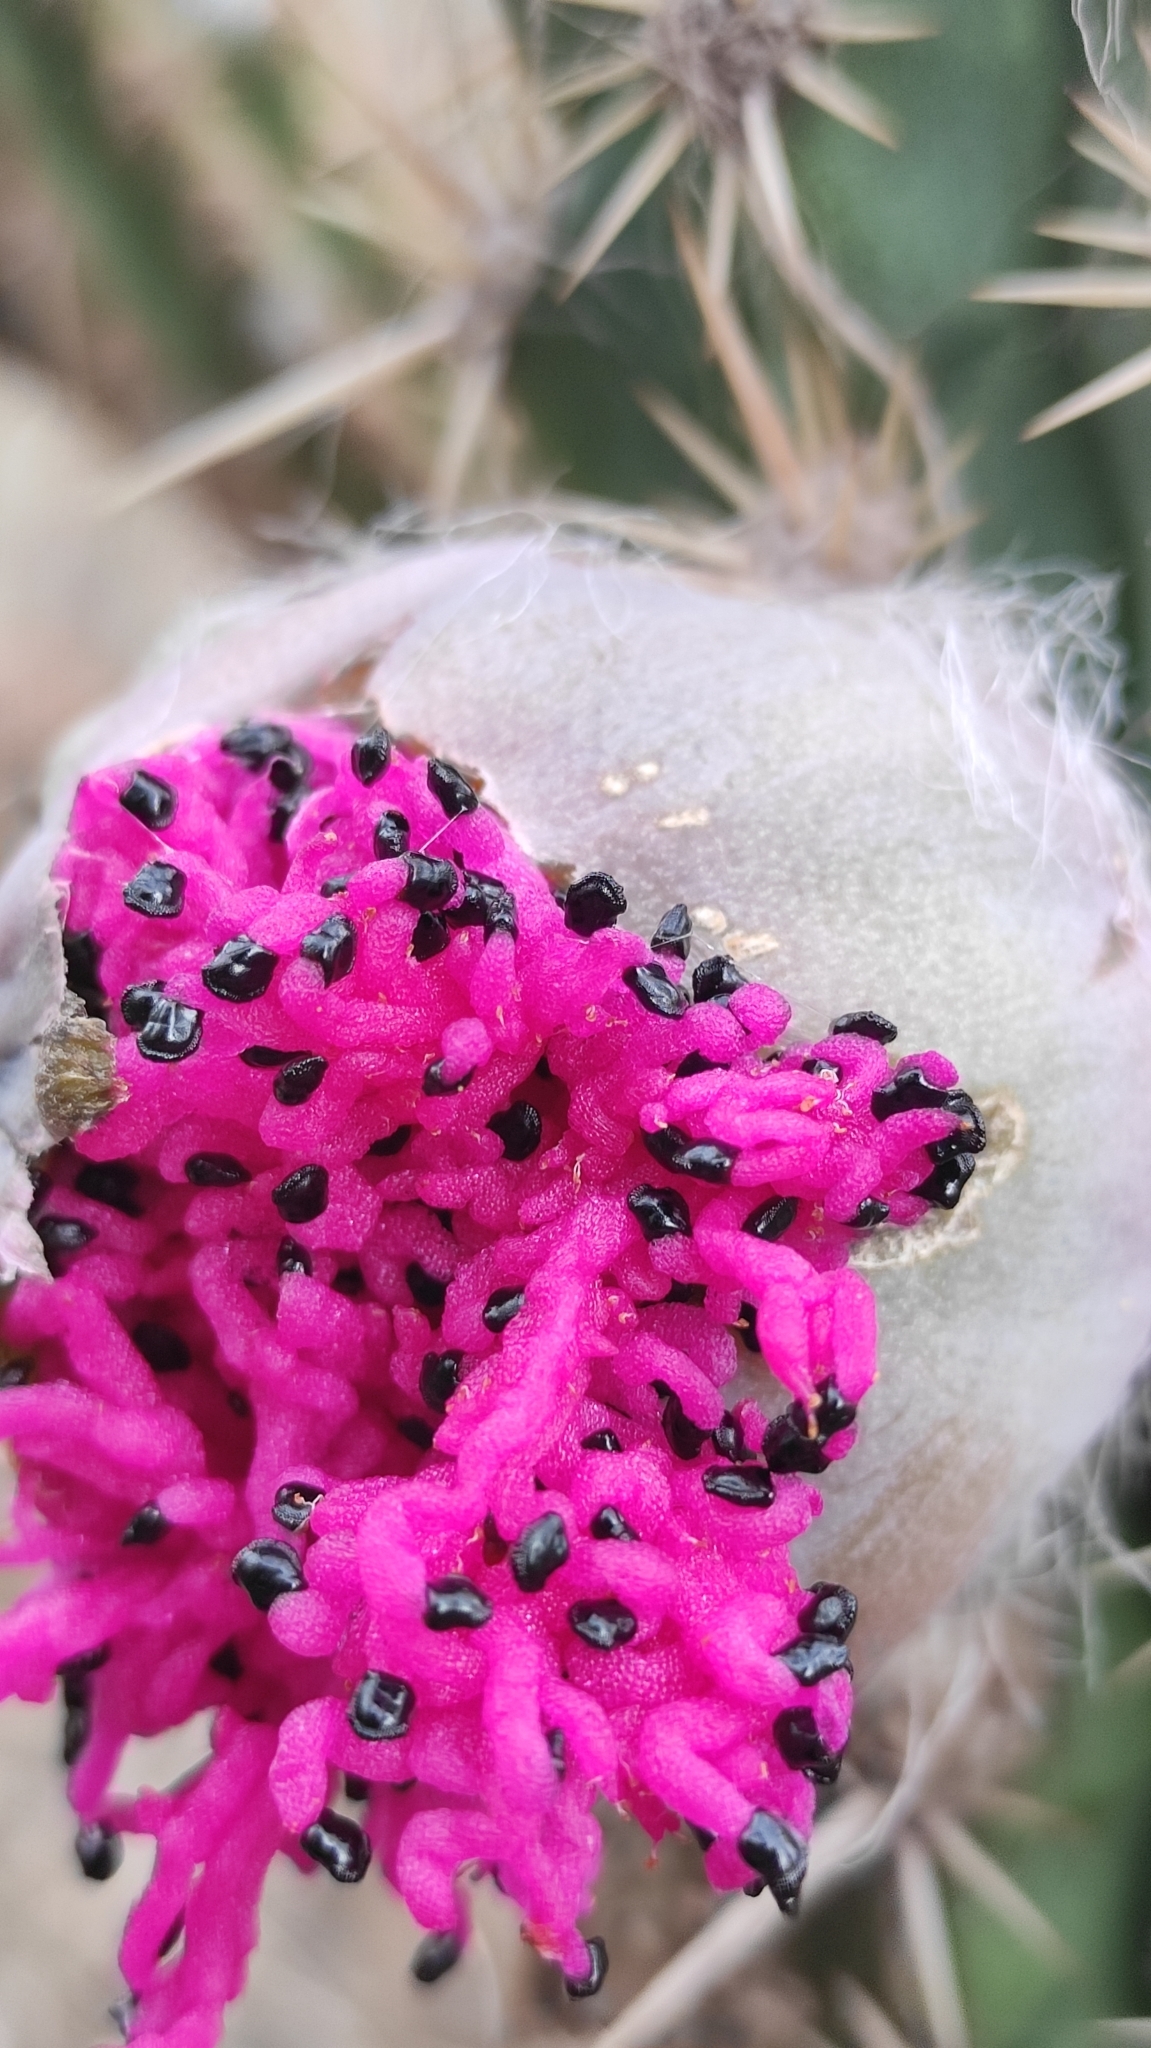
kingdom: Plantae
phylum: Tracheophyta
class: Magnoliopsida
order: Caryophyllales
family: Cactaceae
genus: Xiquexique
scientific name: Xiquexique gounellei
